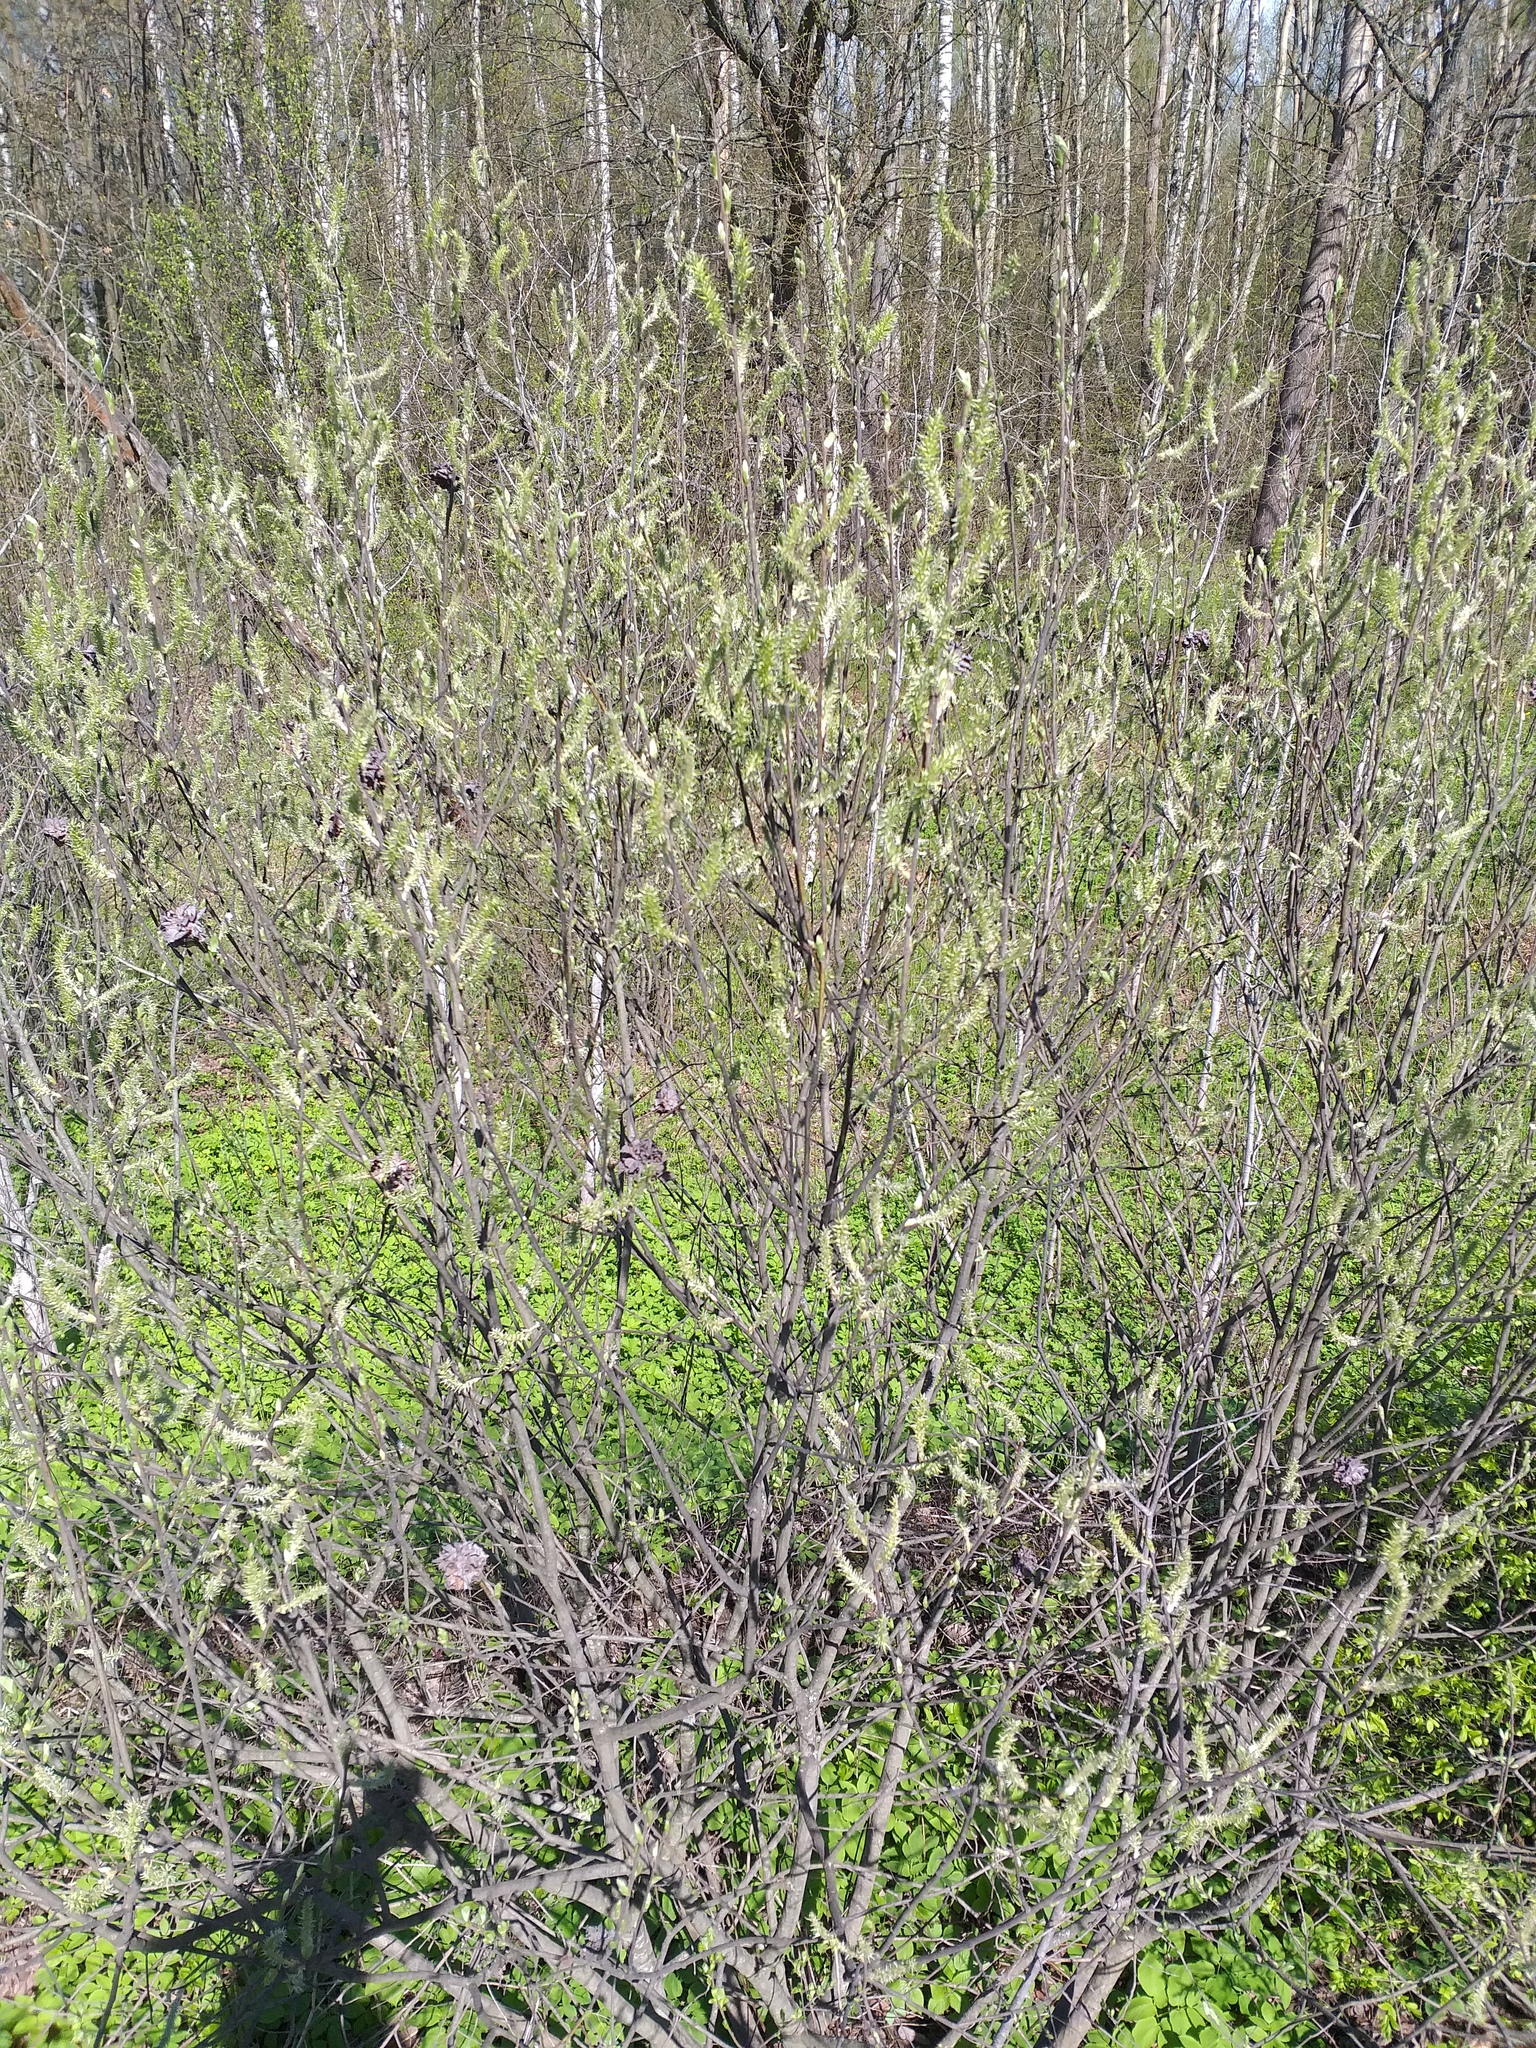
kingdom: Plantae
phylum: Tracheophyta
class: Magnoliopsida
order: Malpighiales
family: Salicaceae
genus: Salix
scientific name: Salix cinerea
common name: Common sallow
